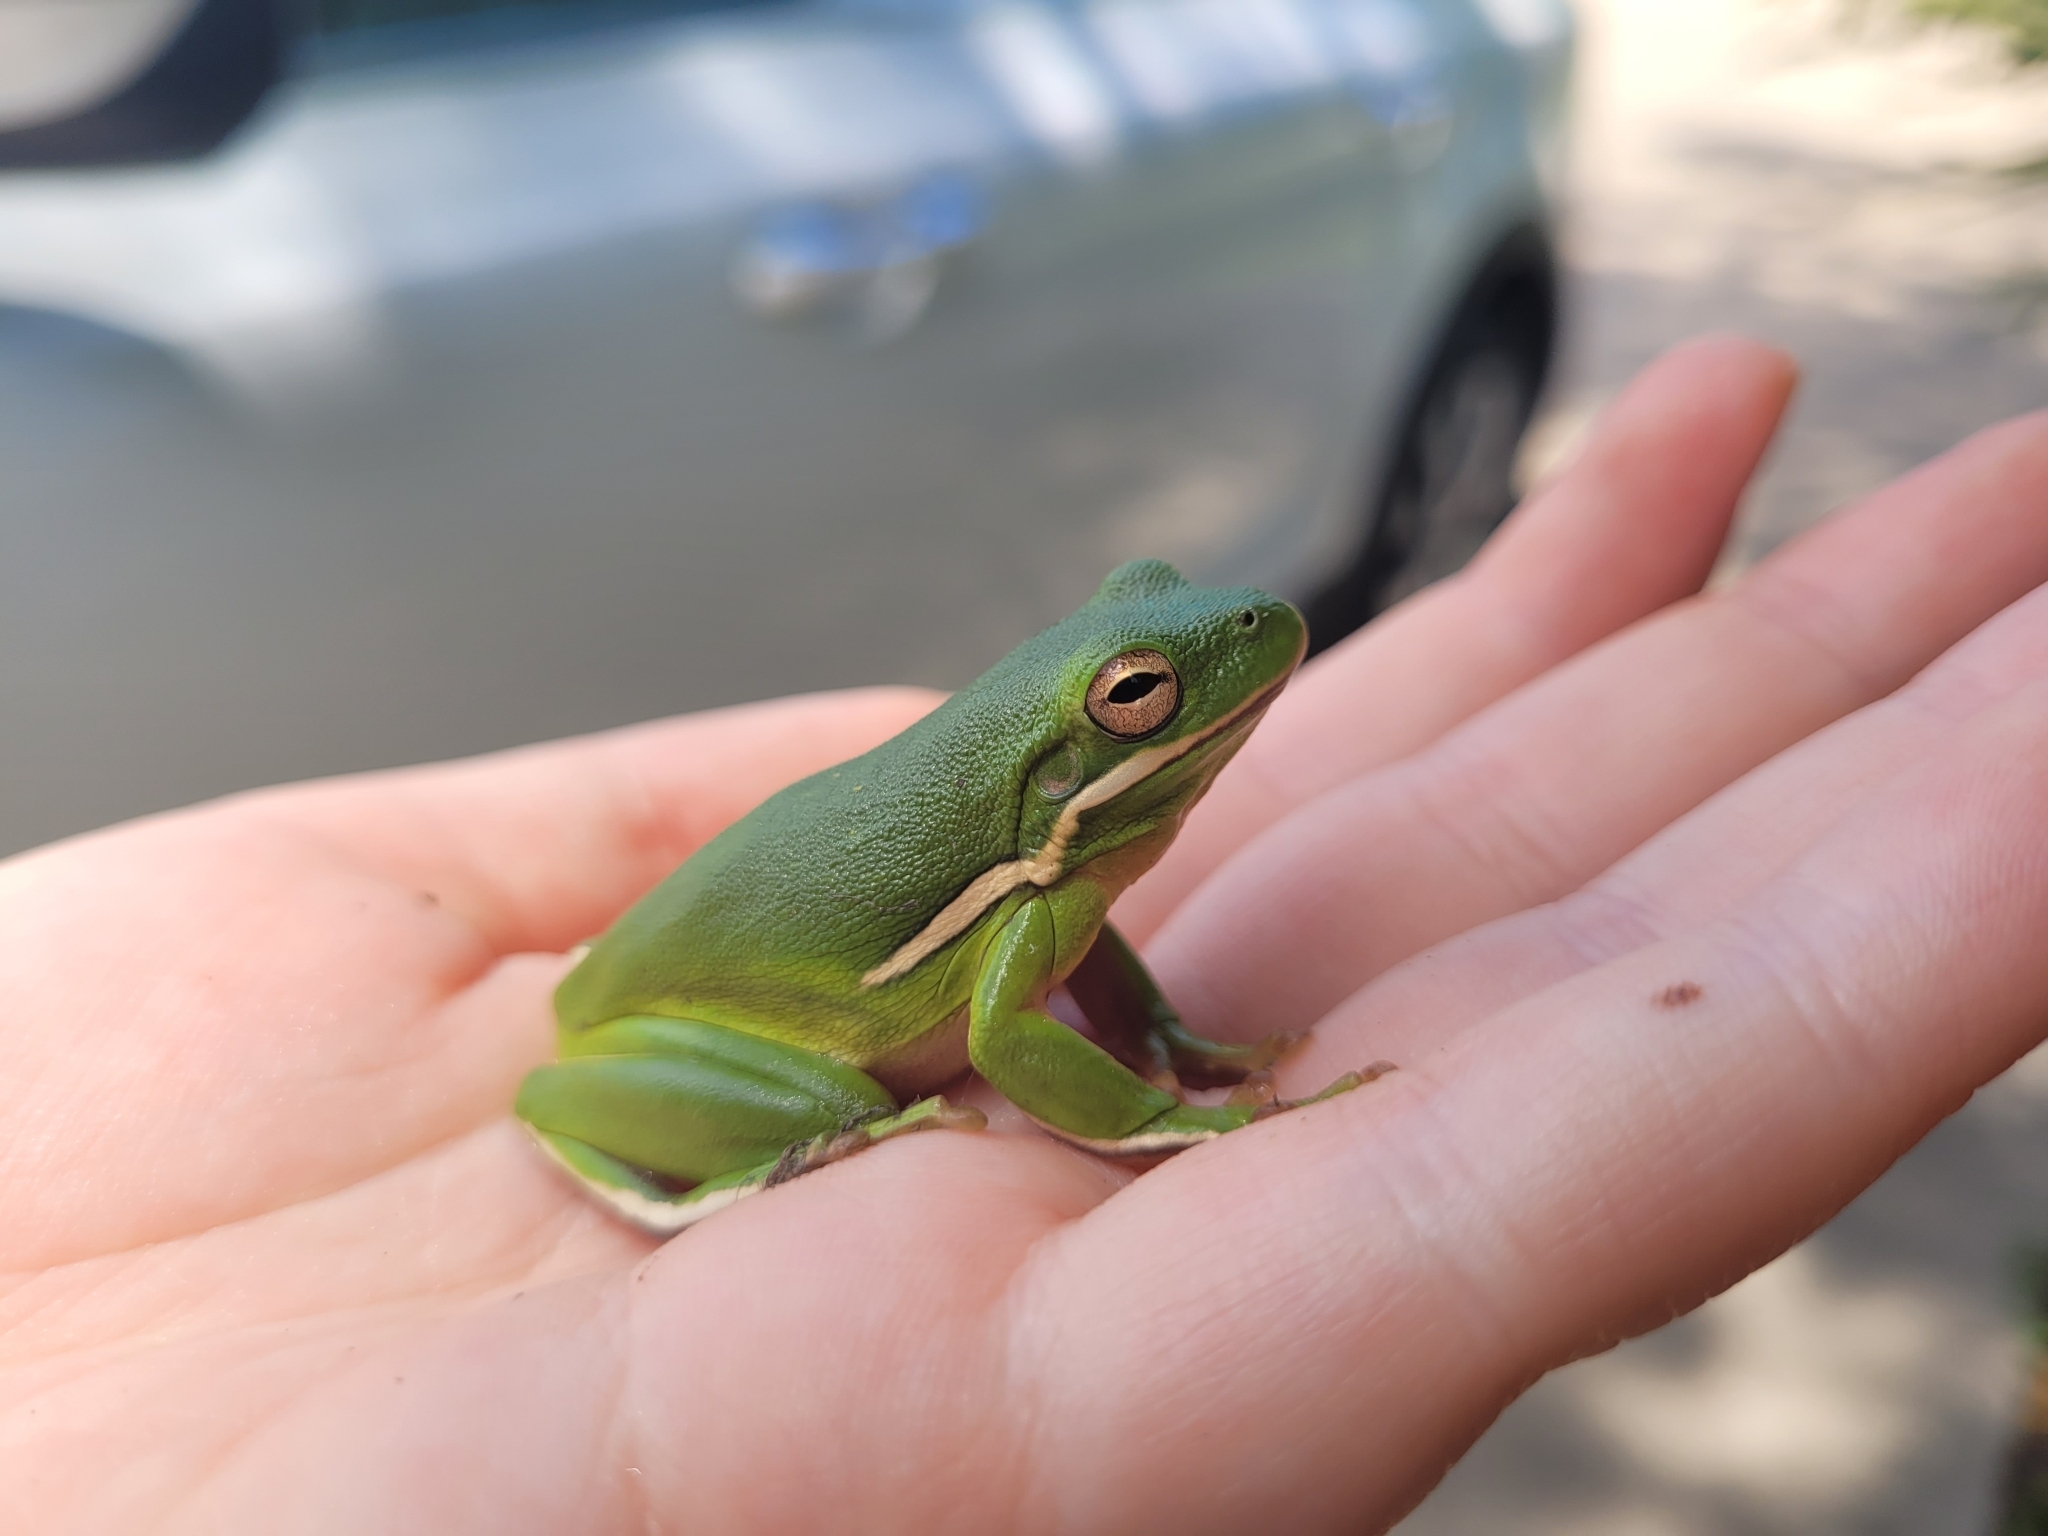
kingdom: Animalia
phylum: Chordata
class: Amphibia
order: Anura
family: Hylidae
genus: Dryophytes
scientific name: Dryophytes cinereus
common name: Green treefrog
